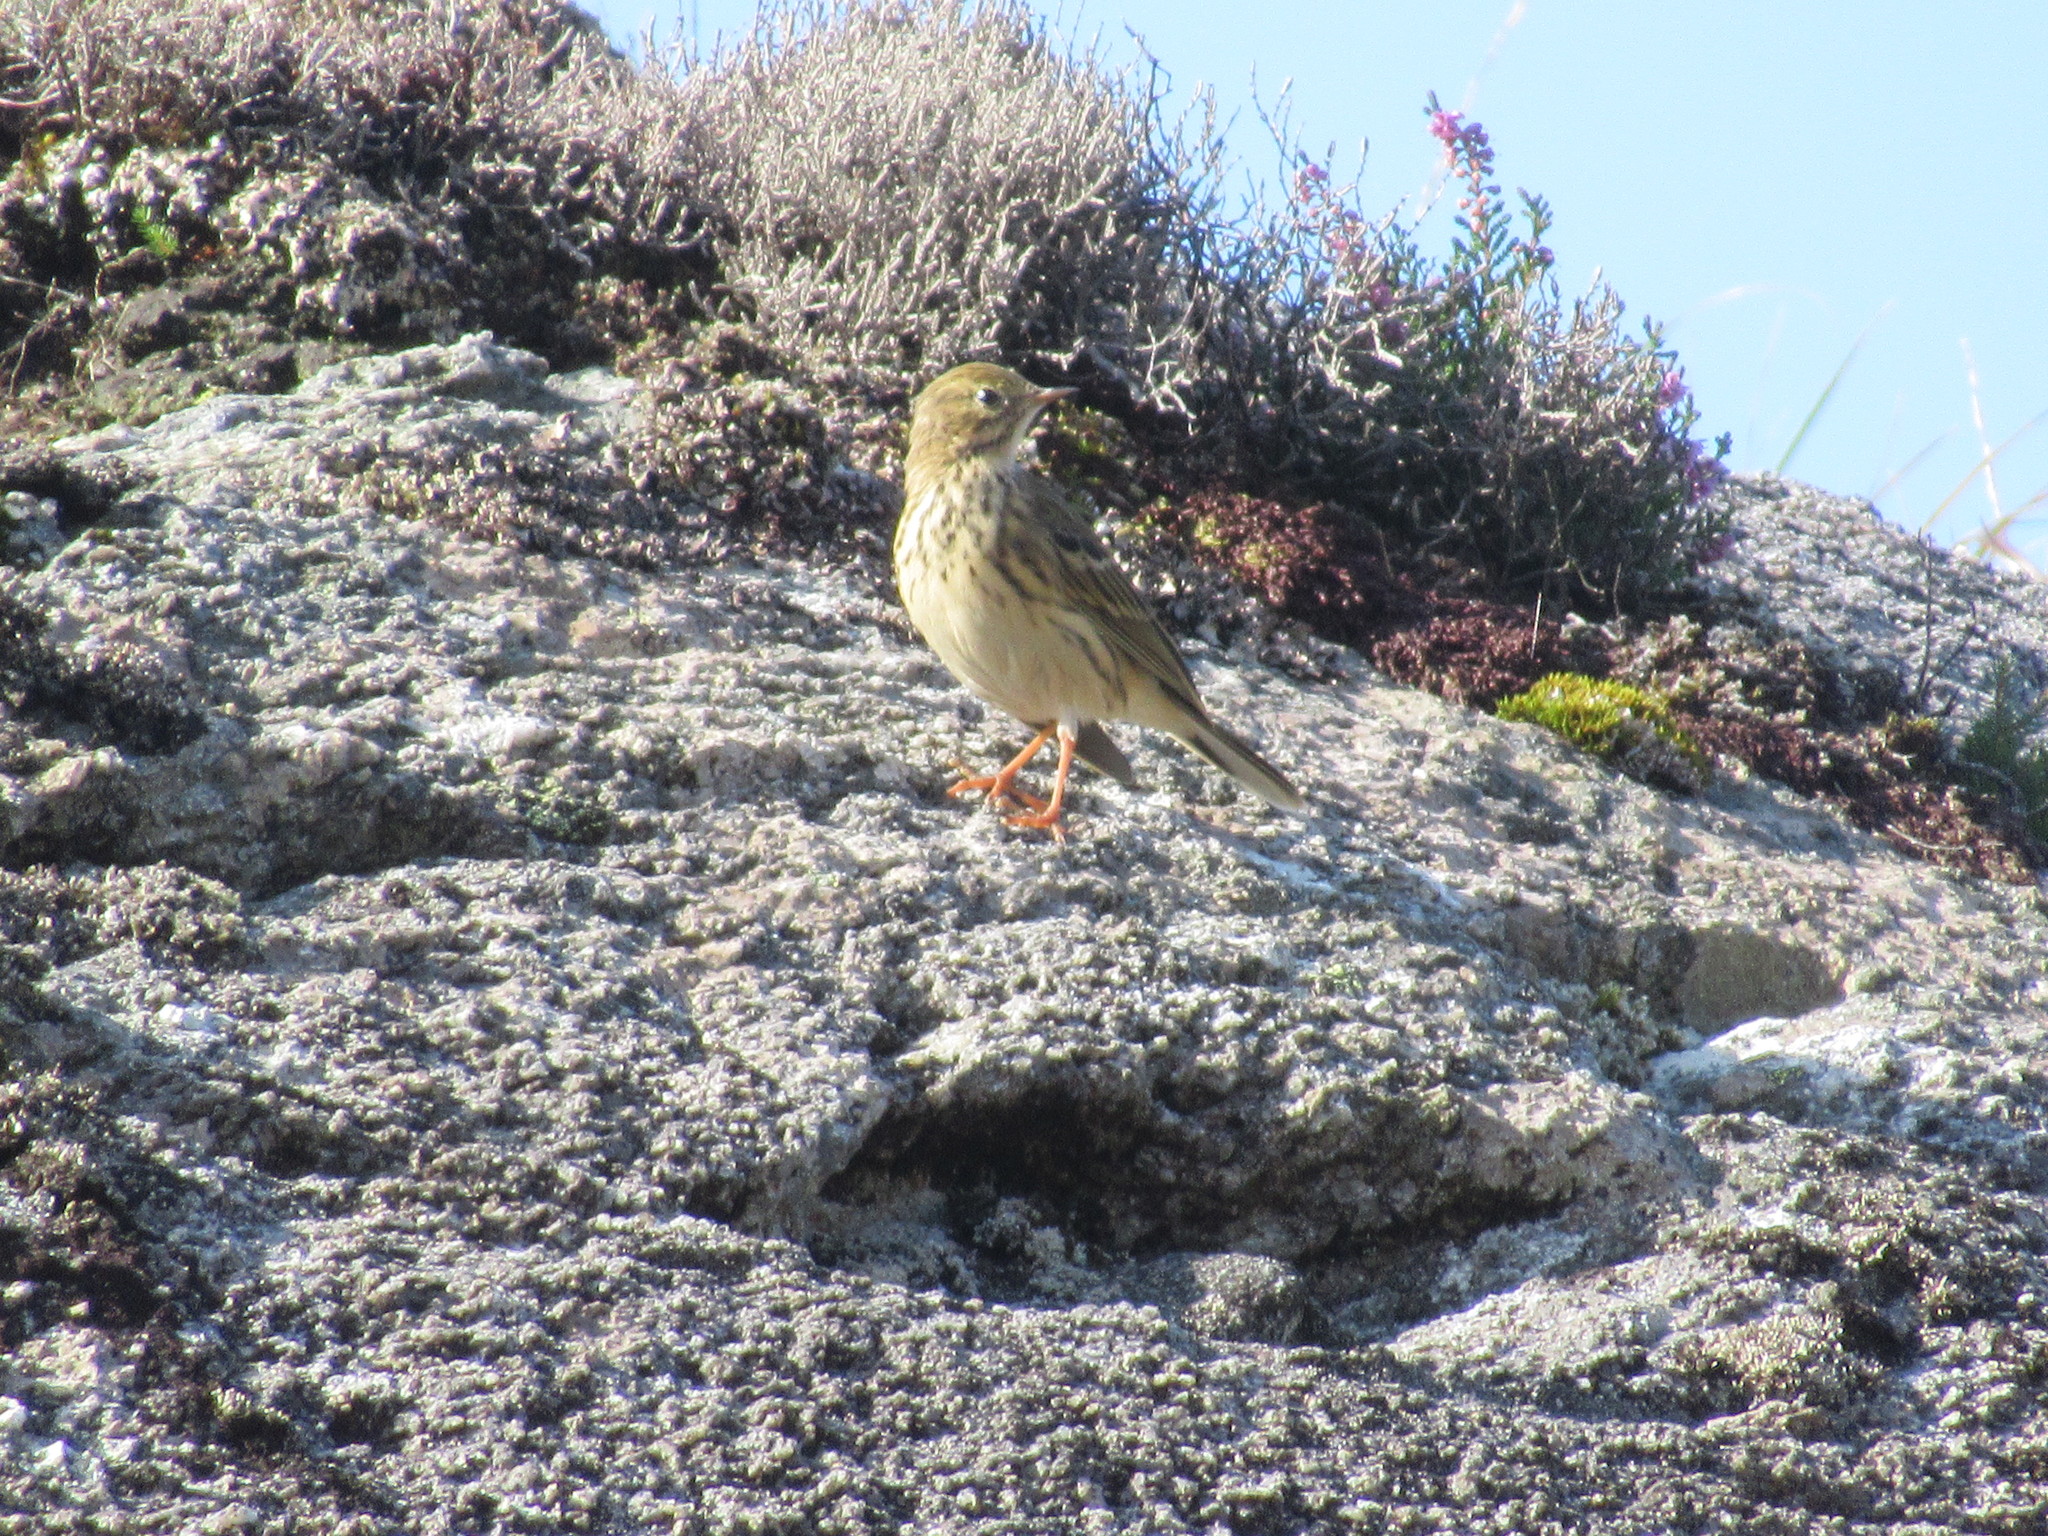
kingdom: Animalia
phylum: Chordata
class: Aves
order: Passeriformes
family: Motacillidae
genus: Anthus
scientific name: Anthus pratensis
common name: Meadow pipit
